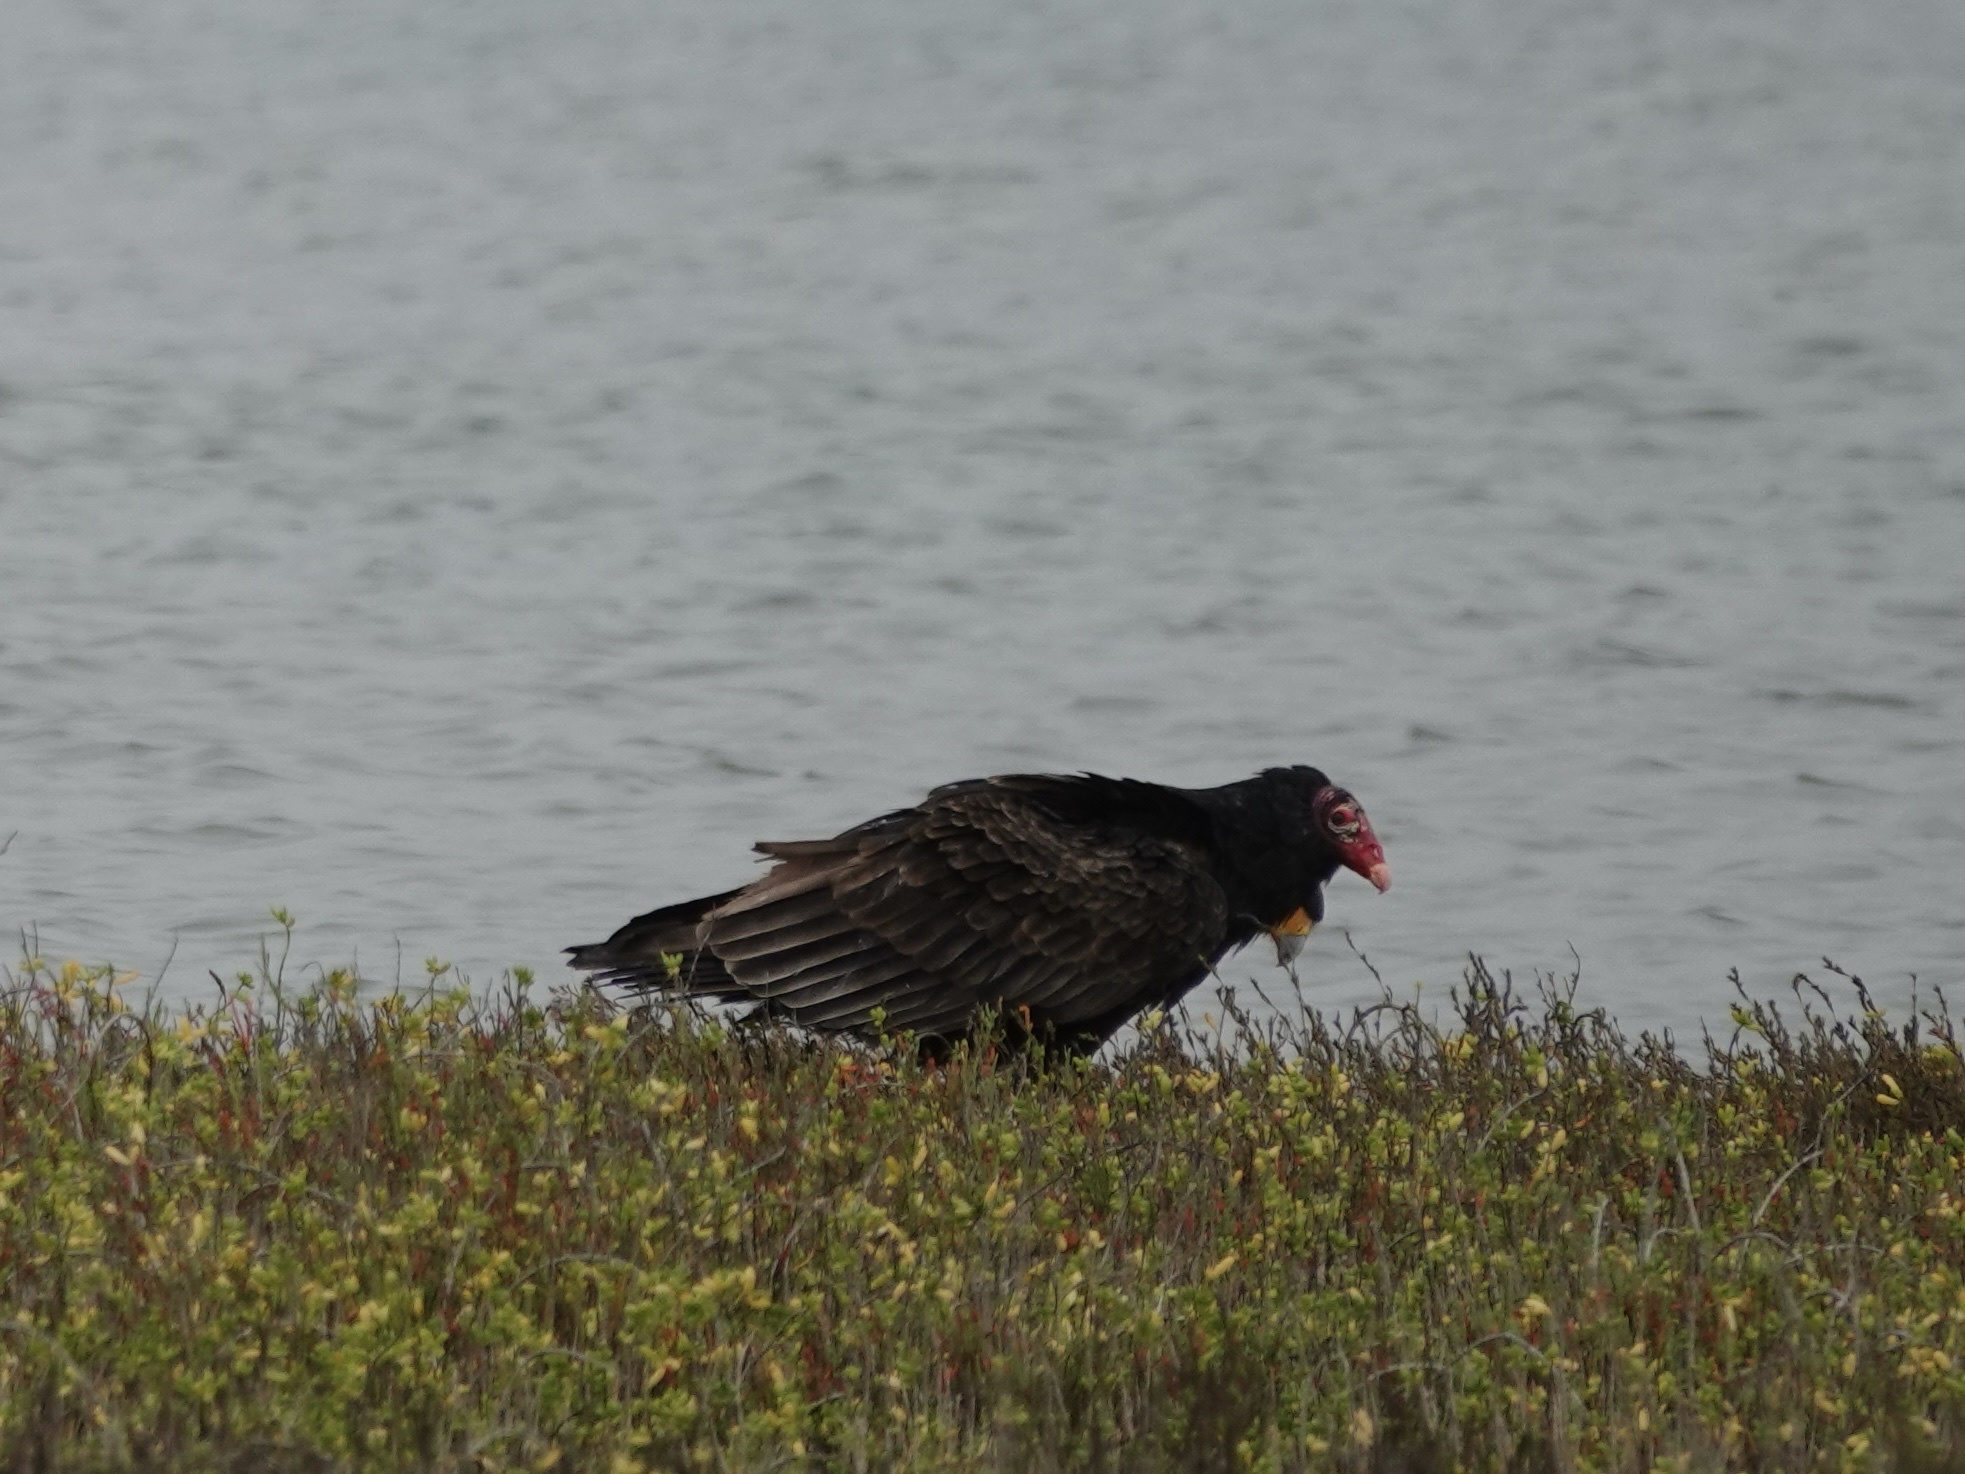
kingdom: Animalia
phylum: Chordata
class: Aves
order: Accipitriformes
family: Cathartidae
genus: Cathartes
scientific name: Cathartes aura
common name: Turkey vulture
